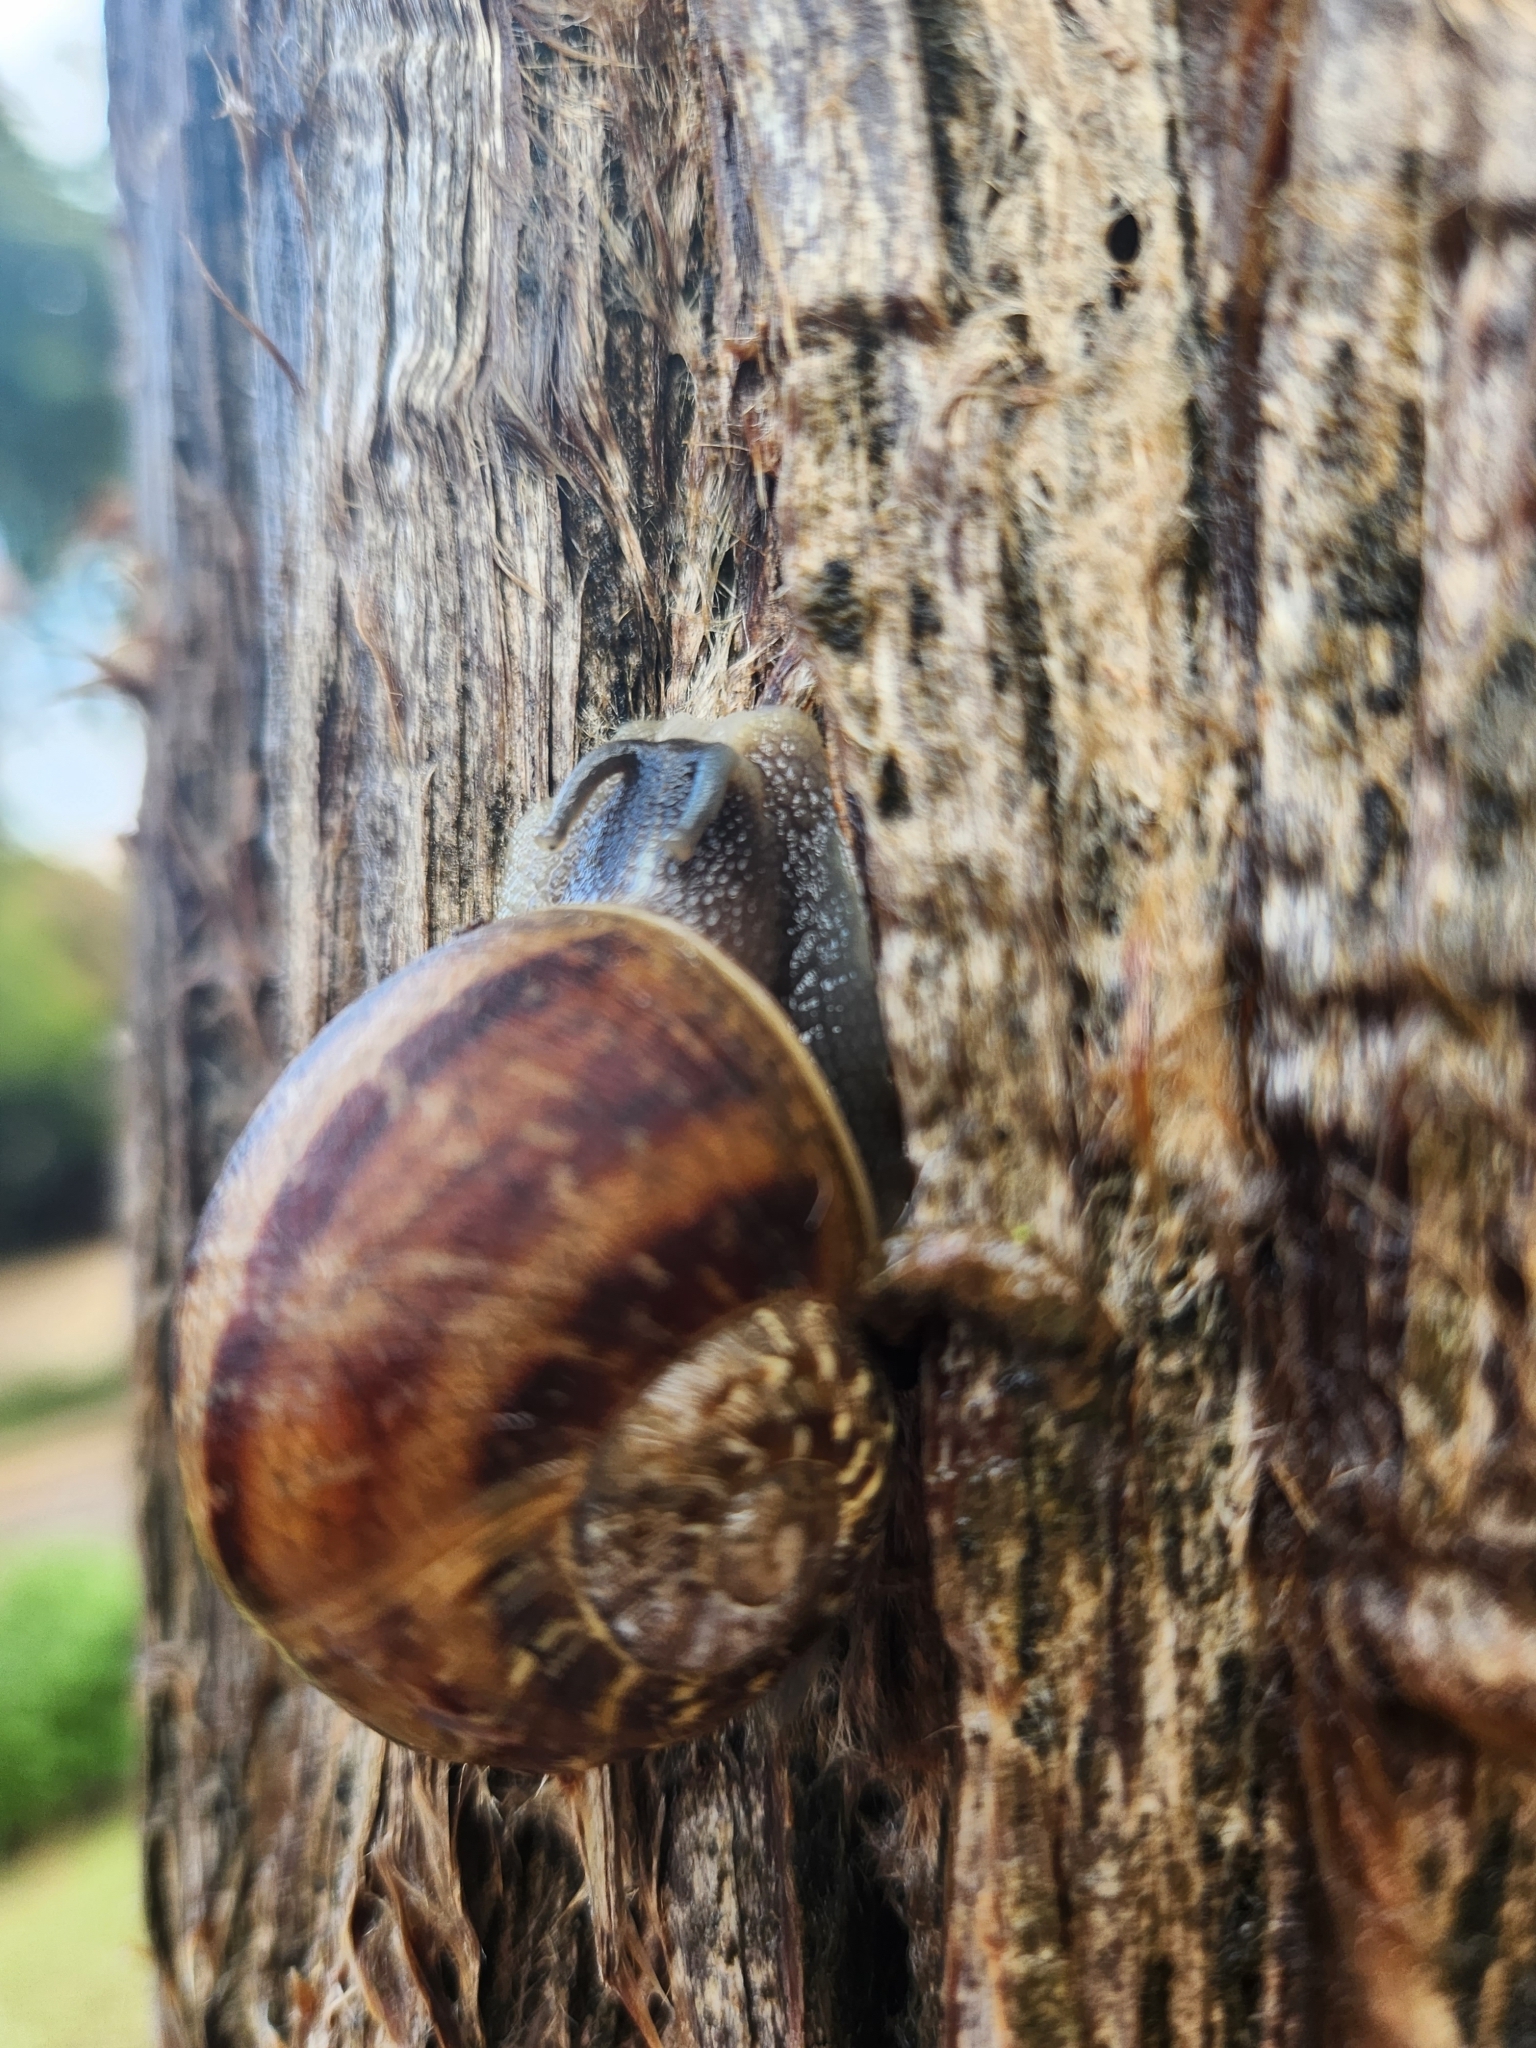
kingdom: Animalia
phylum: Mollusca
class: Gastropoda
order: Stylommatophora
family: Helicidae
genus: Cornu
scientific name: Cornu aspersum
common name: Brown garden snail
